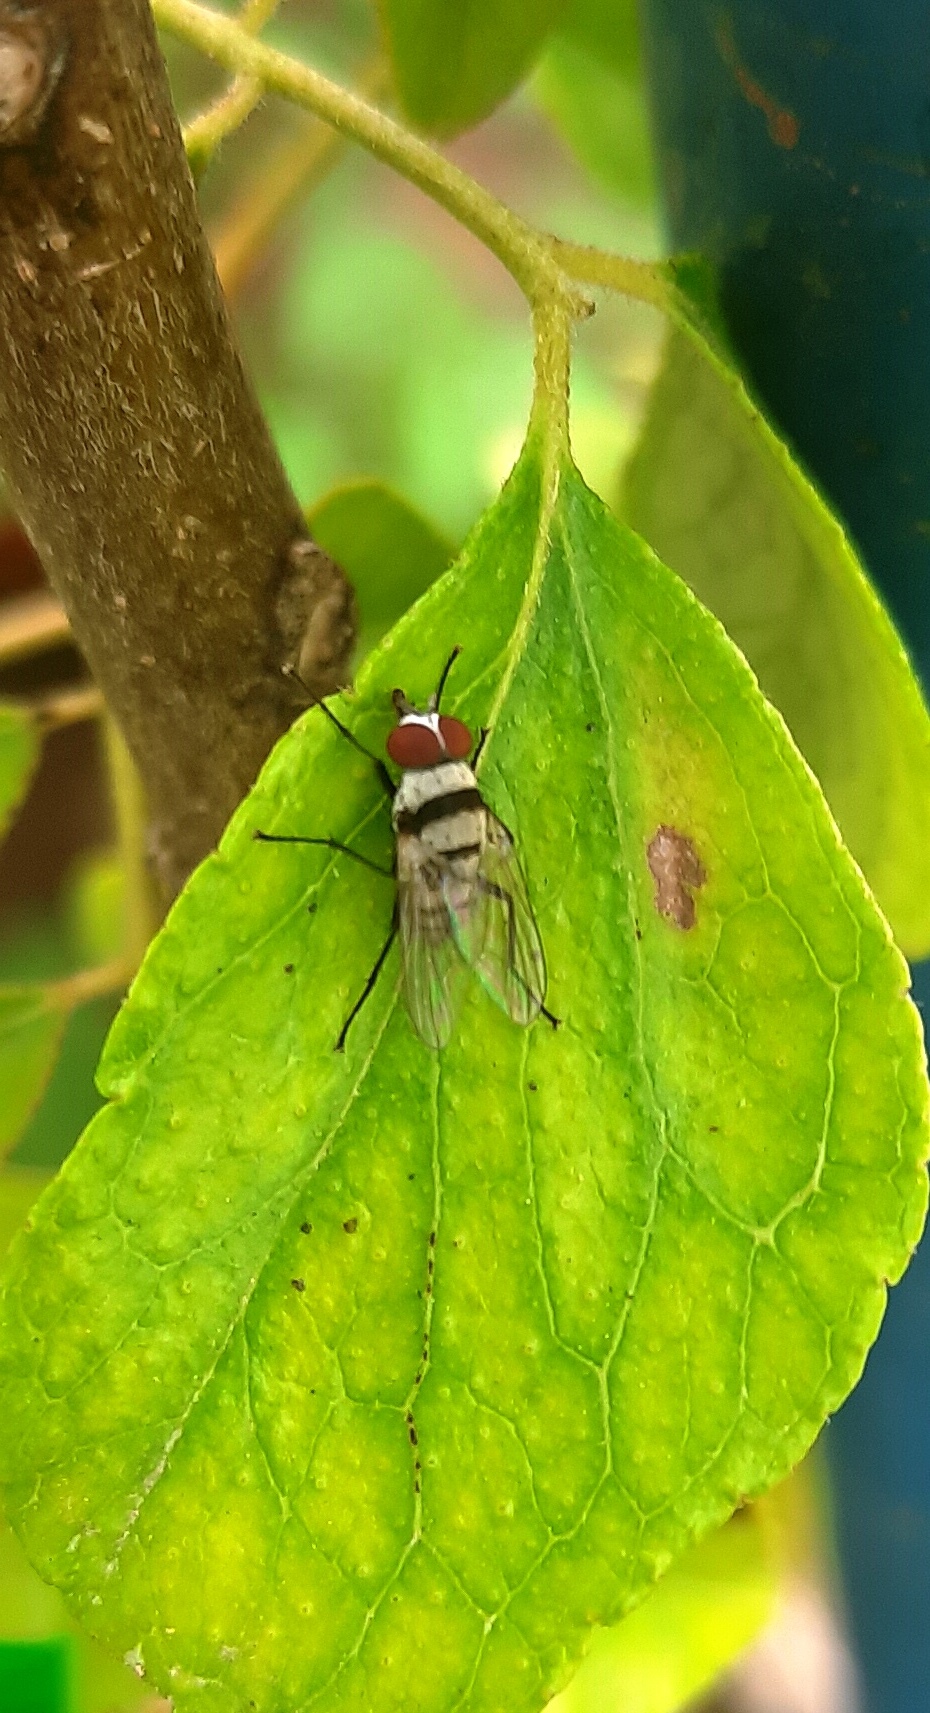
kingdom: Animalia
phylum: Arthropoda
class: Insecta
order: Diptera
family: Anthomyiidae
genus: Anthomyia
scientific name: Anthomyia illocata
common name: Fly
